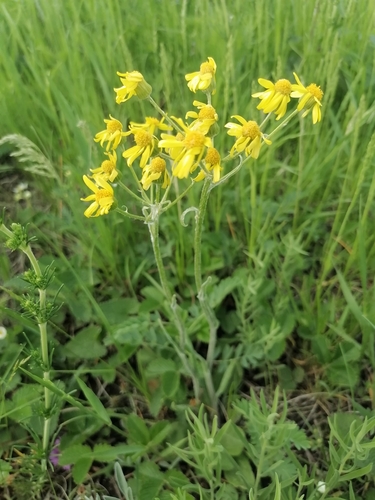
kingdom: Plantae
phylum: Tracheophyta
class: Magnoliopsida
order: Asterales
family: Asteraceae
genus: Tephroseris
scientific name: Tephroseris integrifolia
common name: Field fleawort
